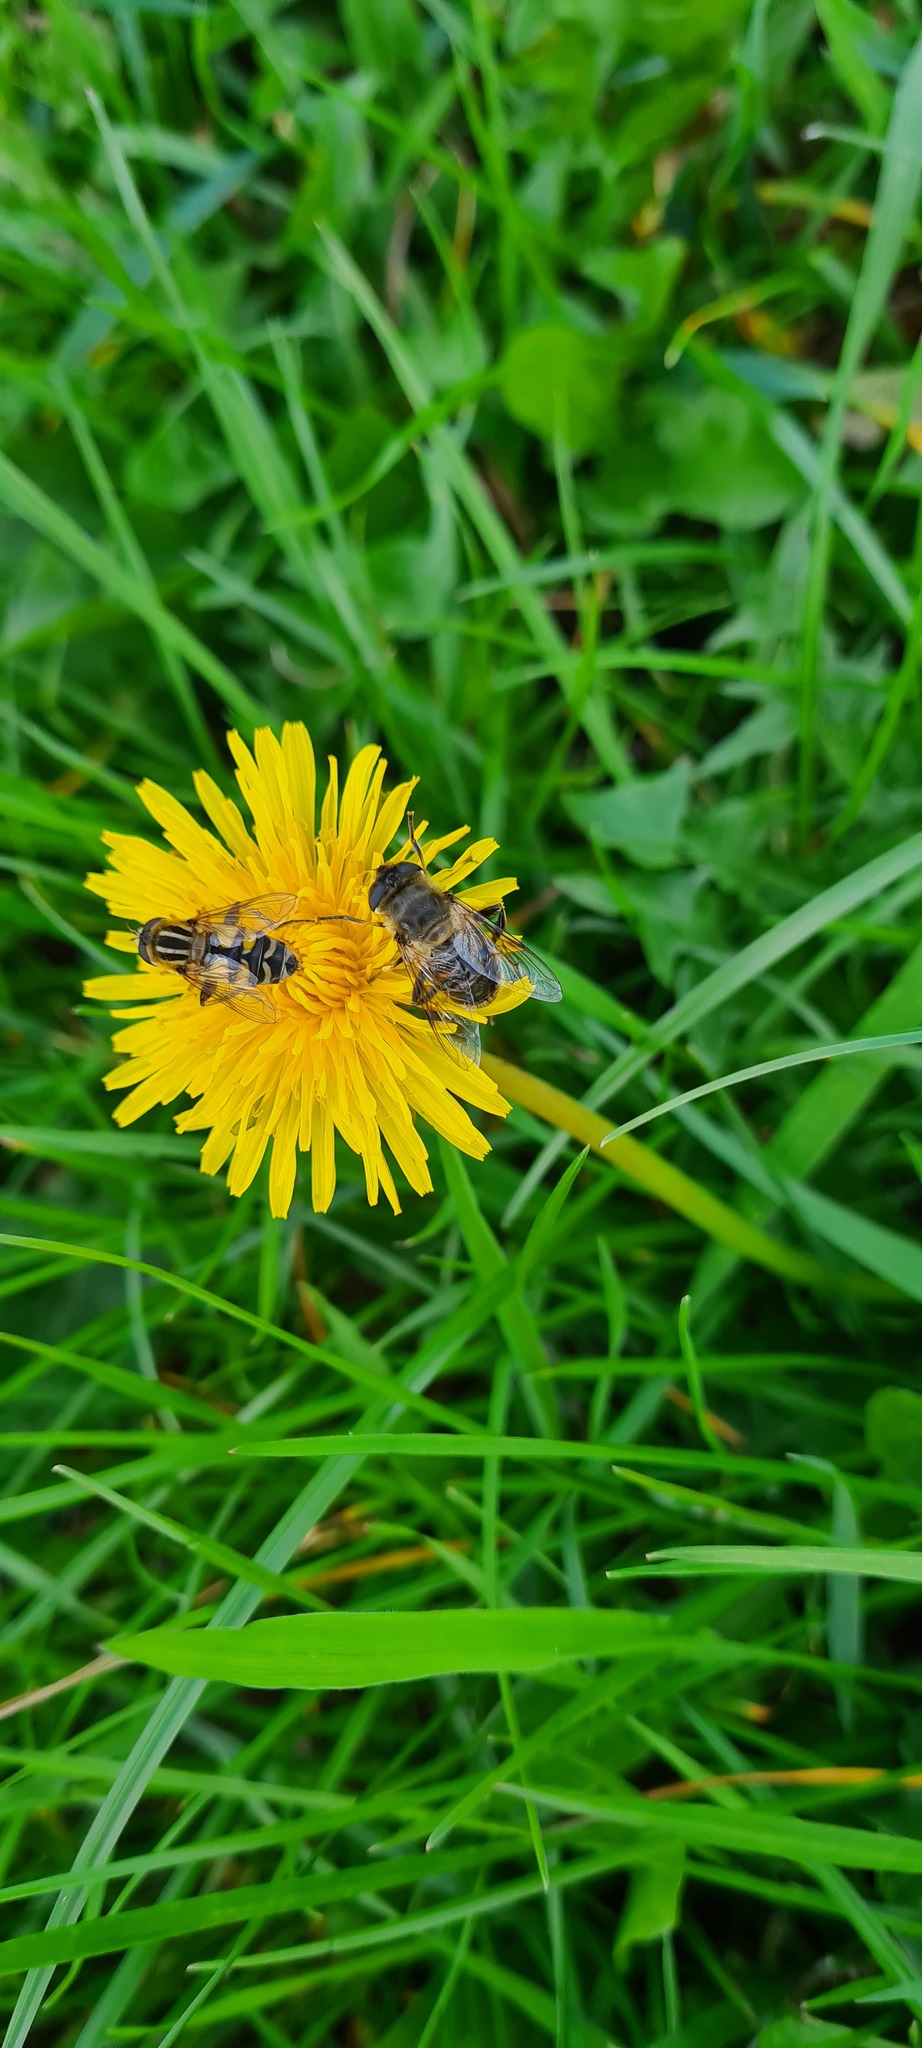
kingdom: Animalia
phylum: Arthropoda
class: Insecta
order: Diptera
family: Syrphidae
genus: Eristalis
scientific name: Eristalis tenax
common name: Drone fly
